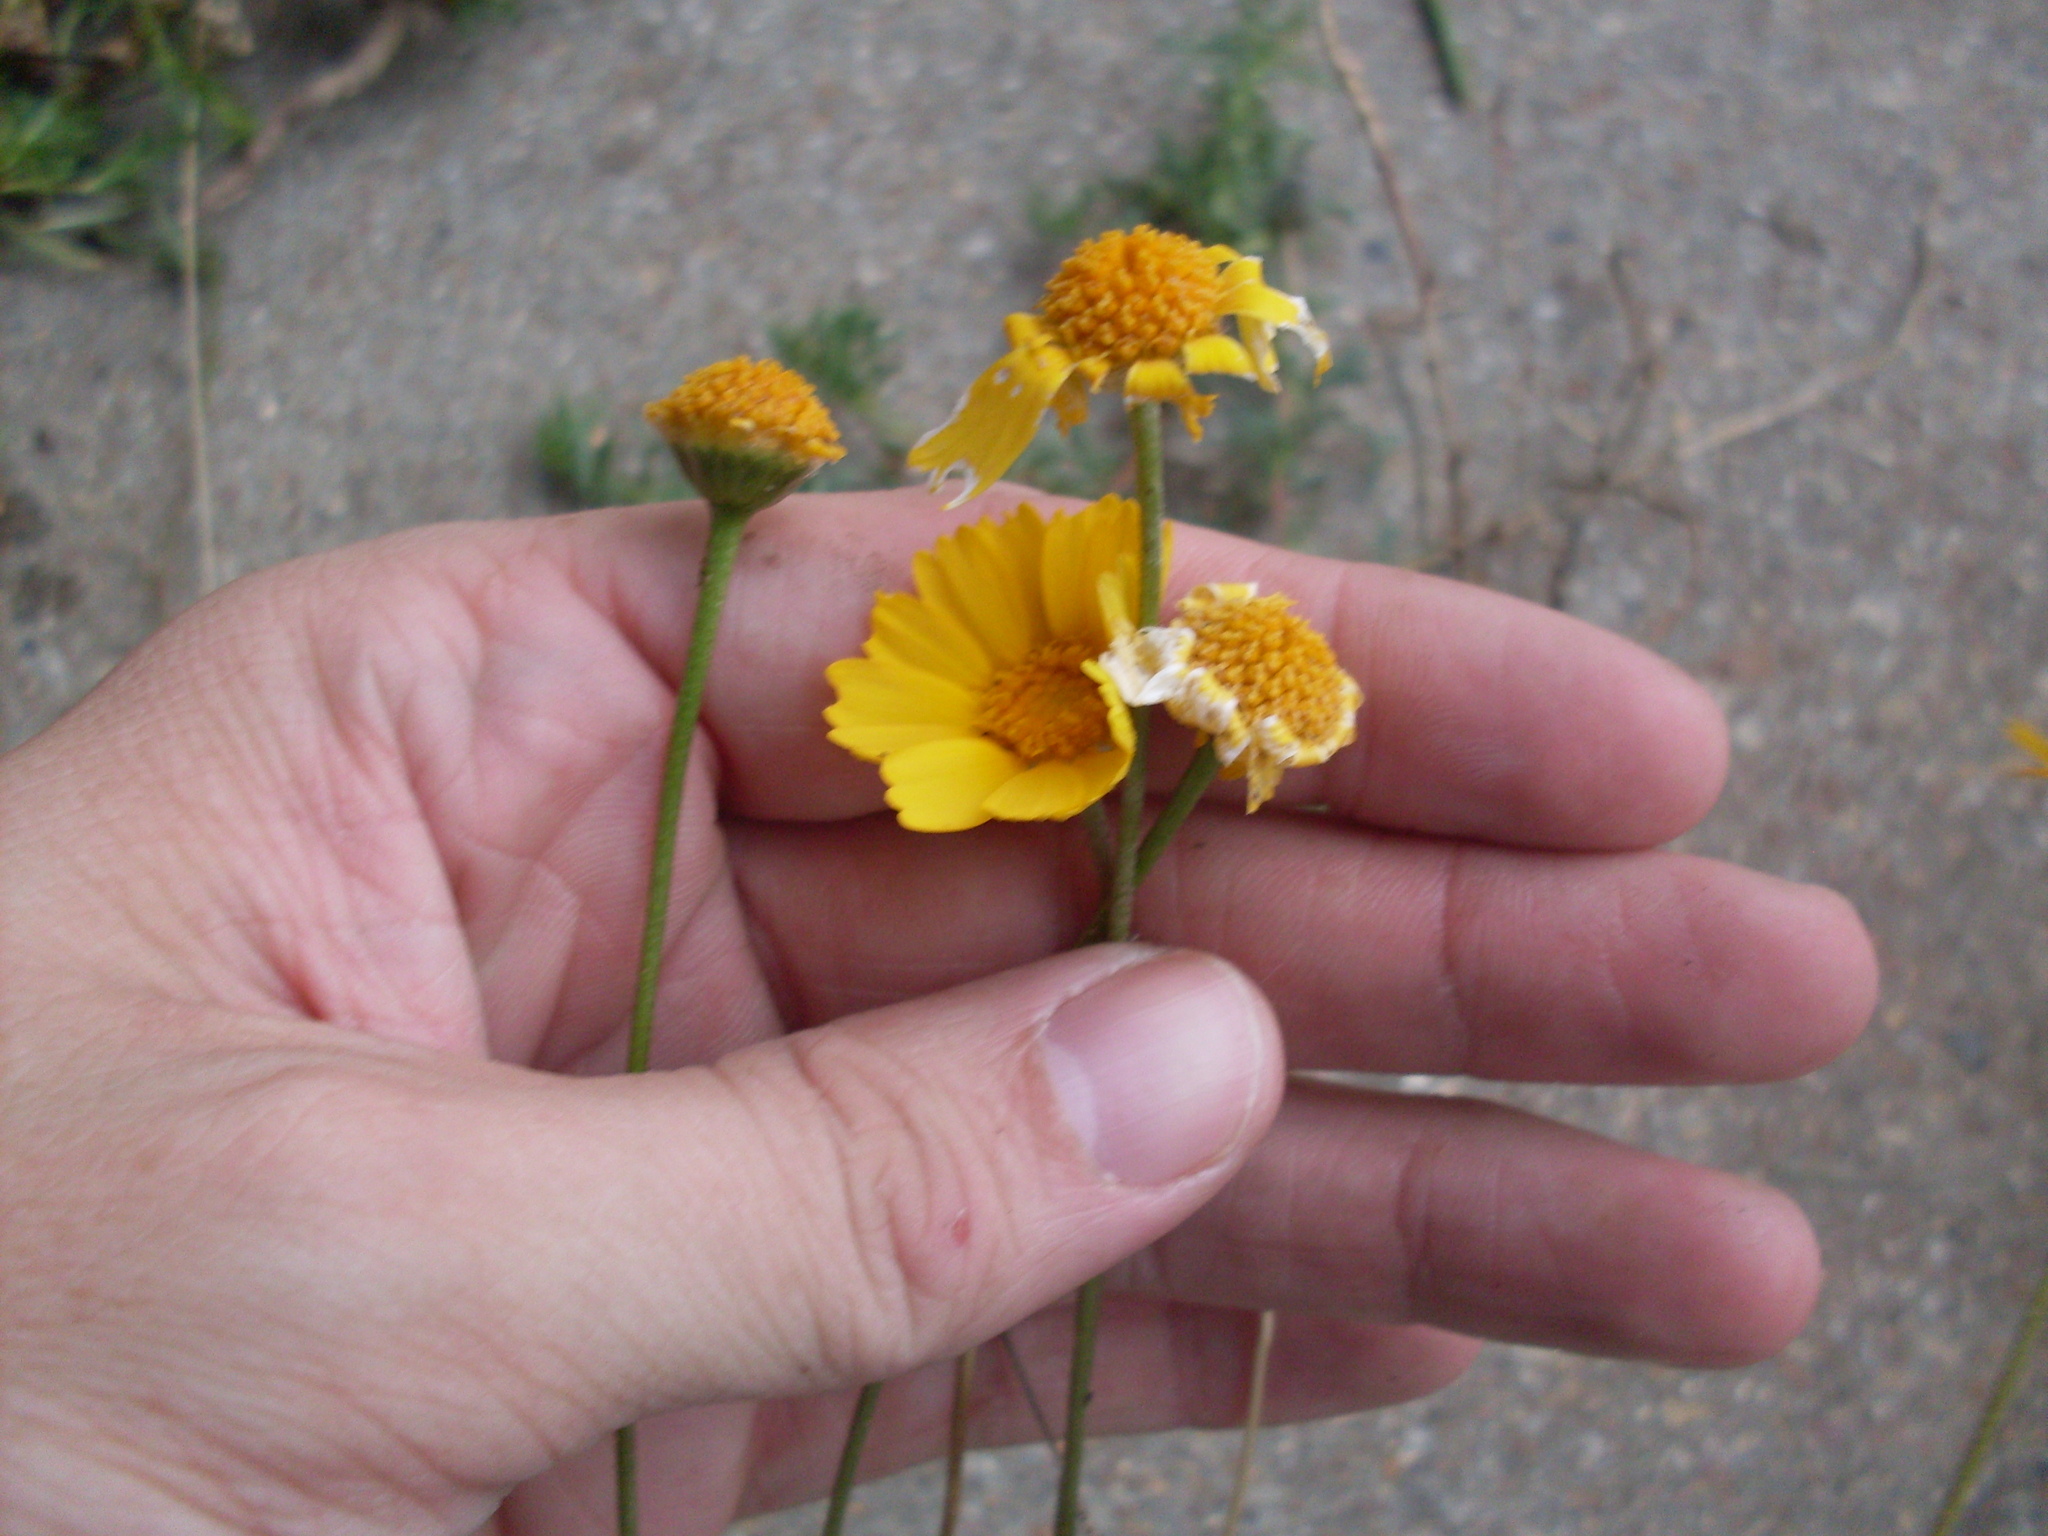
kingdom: Plantae
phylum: Tracheophyta
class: Magnoliopsida
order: Asterales
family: Asteraceae
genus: Tetraneuris
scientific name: Tetraneuris scaposa
